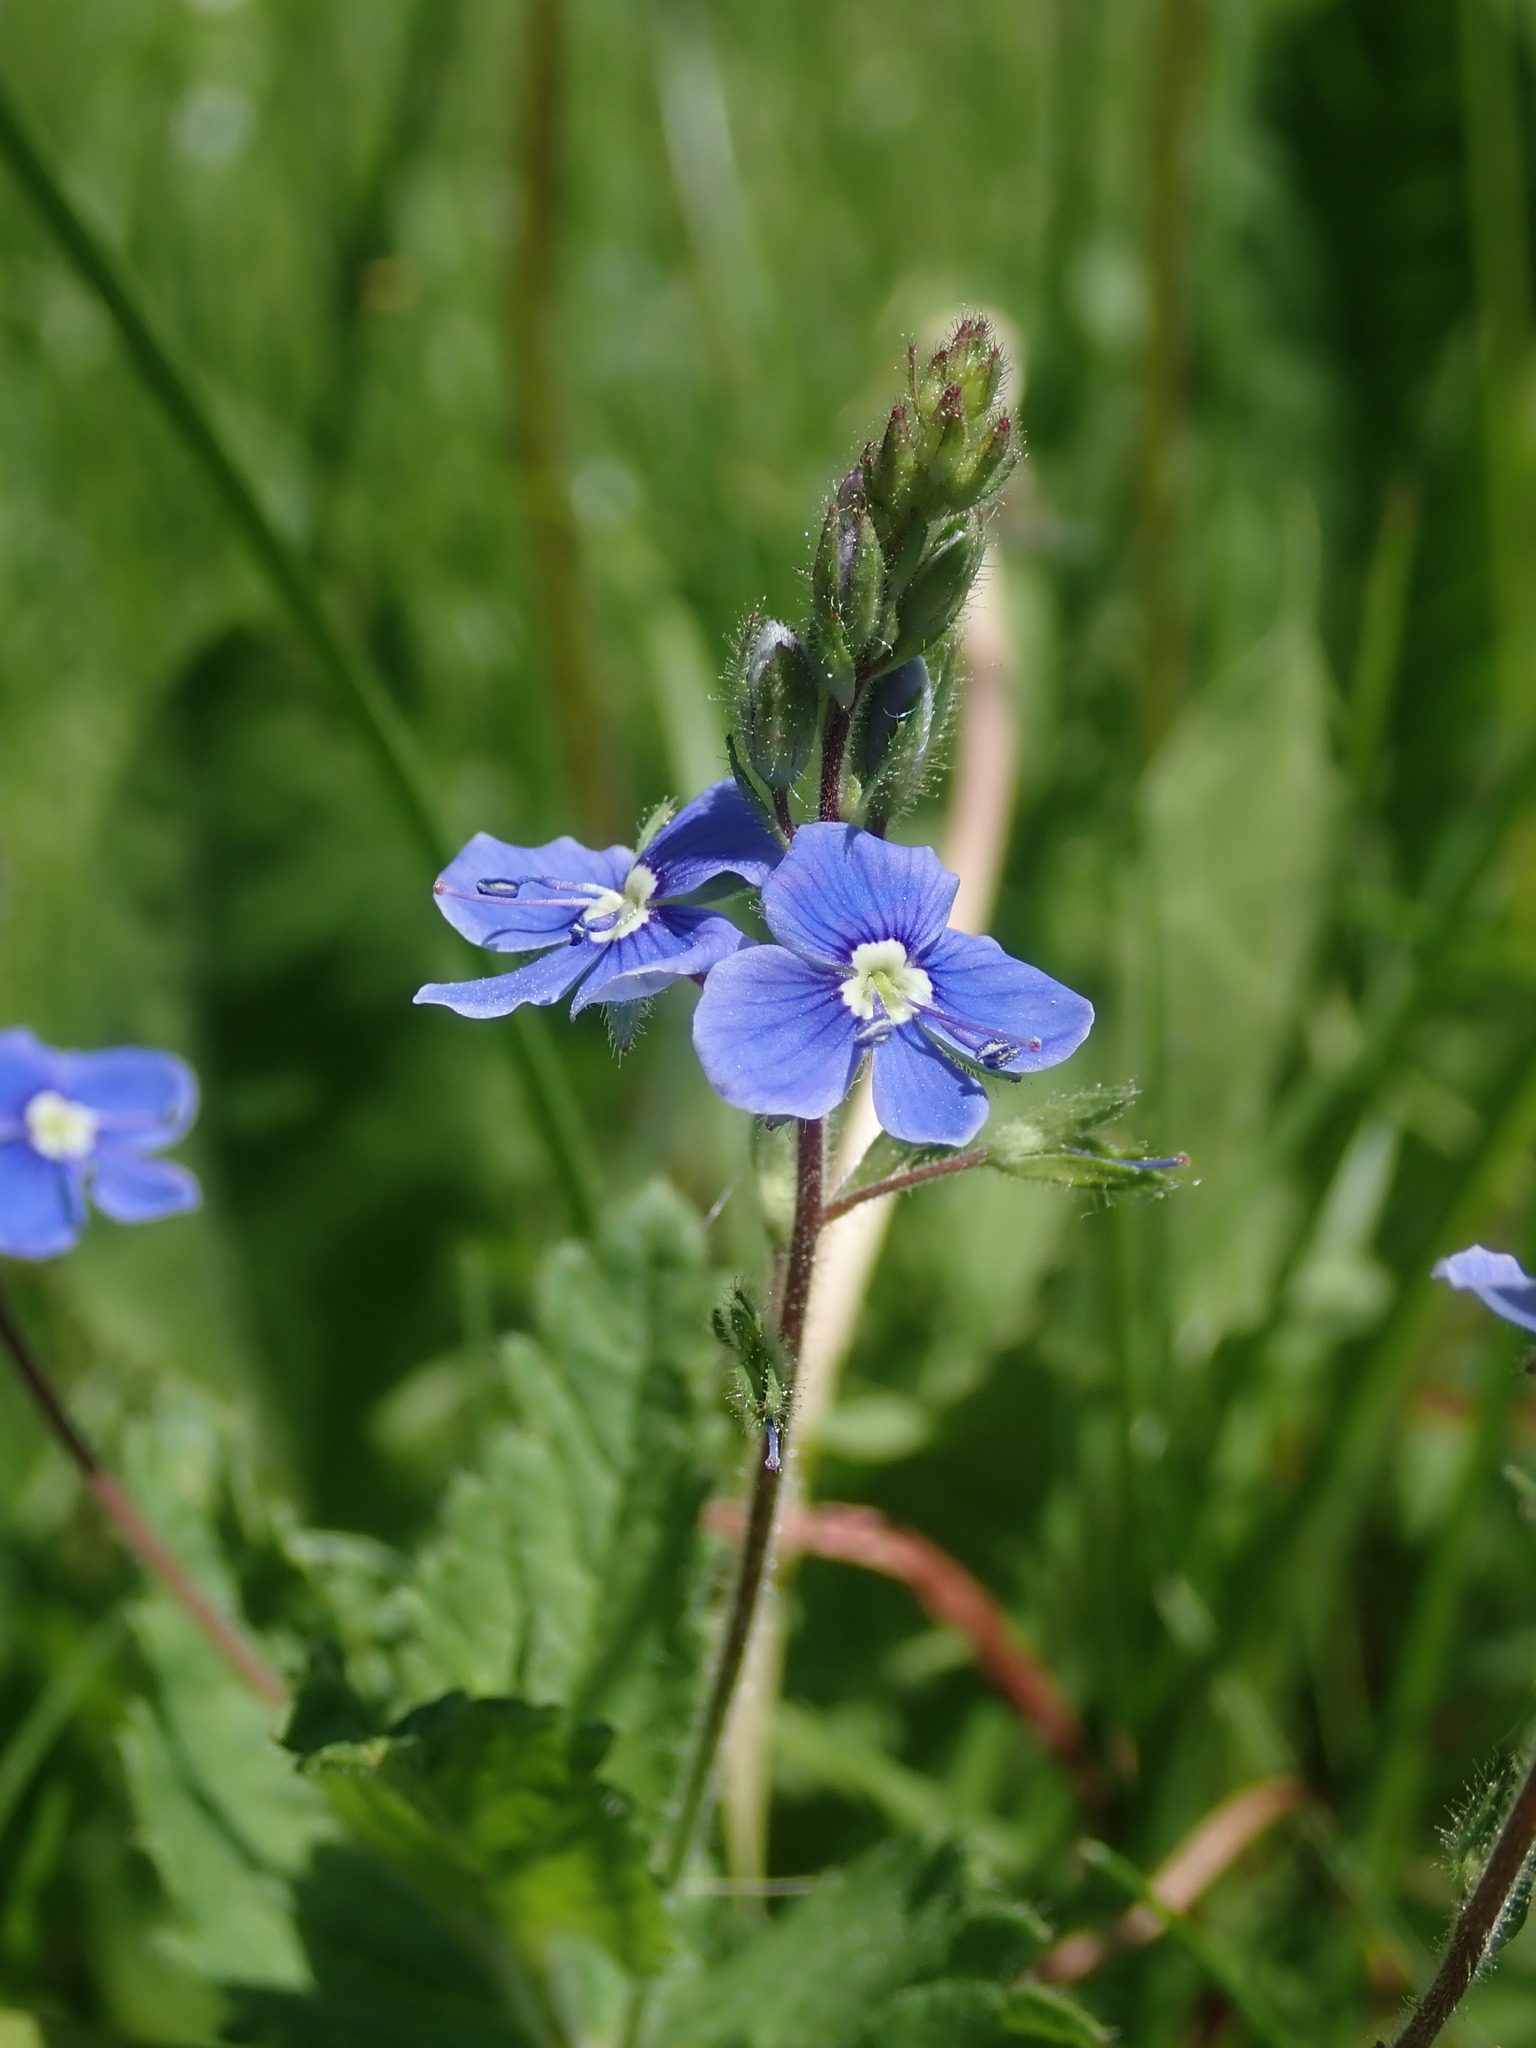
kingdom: Plantae
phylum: Tracheophyta
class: Magnoliopsida
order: Lamiales
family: Plantaginaceae
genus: Veronica
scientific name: Veronica chamaedrys
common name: Germander speedwell
